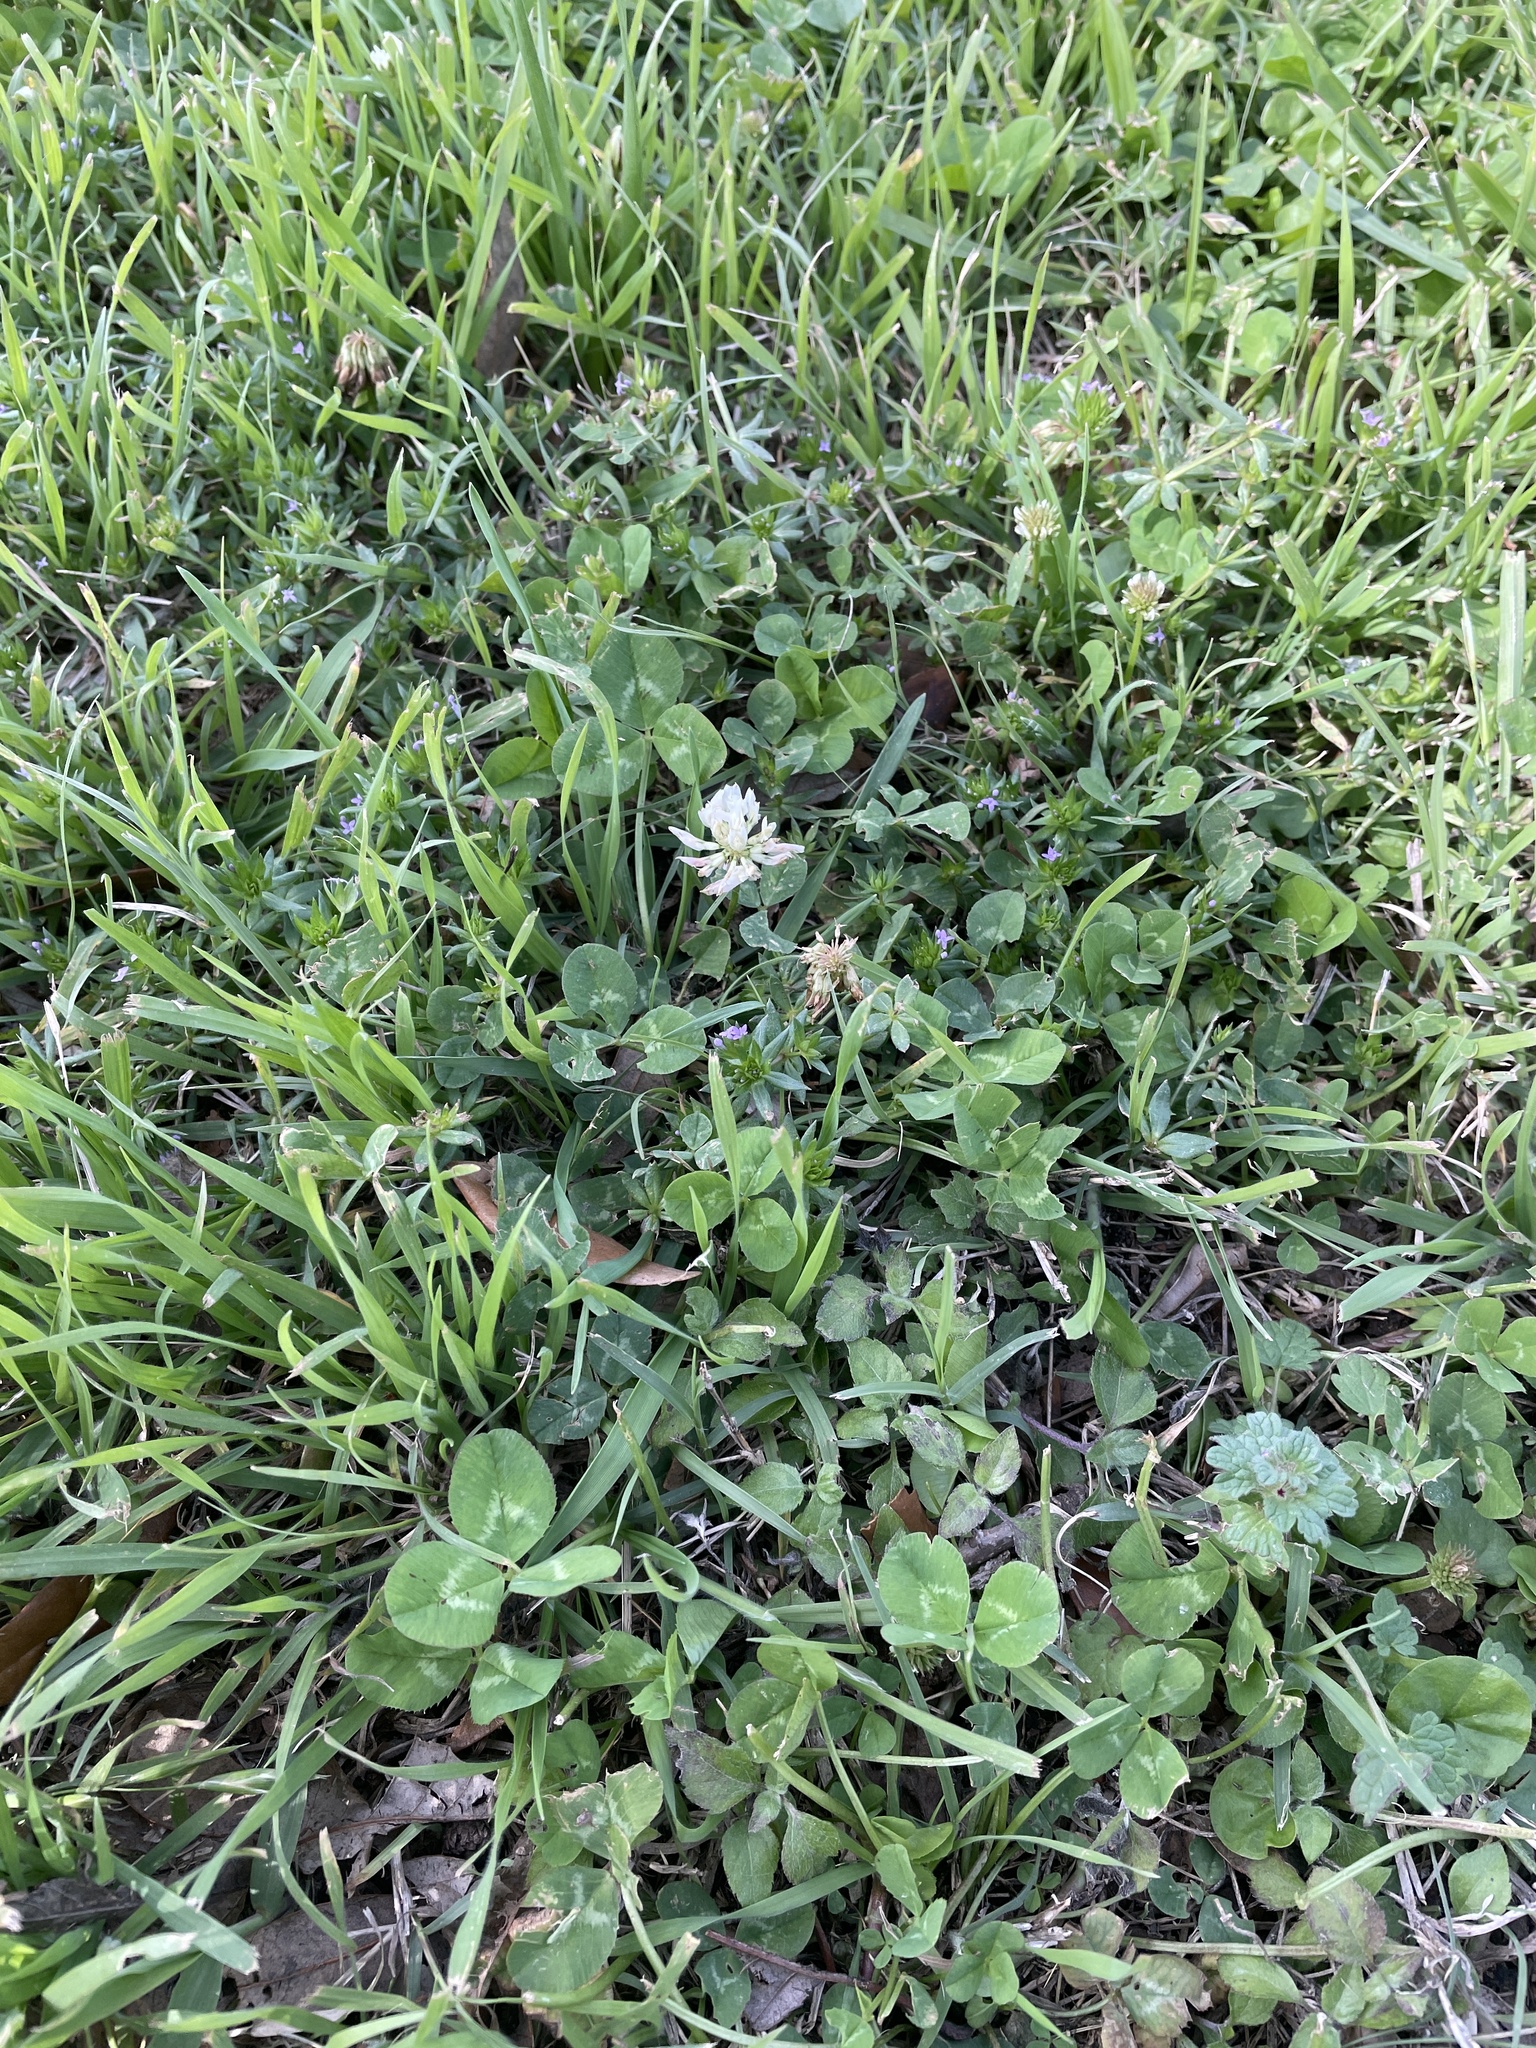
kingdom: Plantae
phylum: Tracheophyta
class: Magnoliopsida
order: Fabales
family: Fabaceae
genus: Trifolium
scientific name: Trifolium repens
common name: White clover
